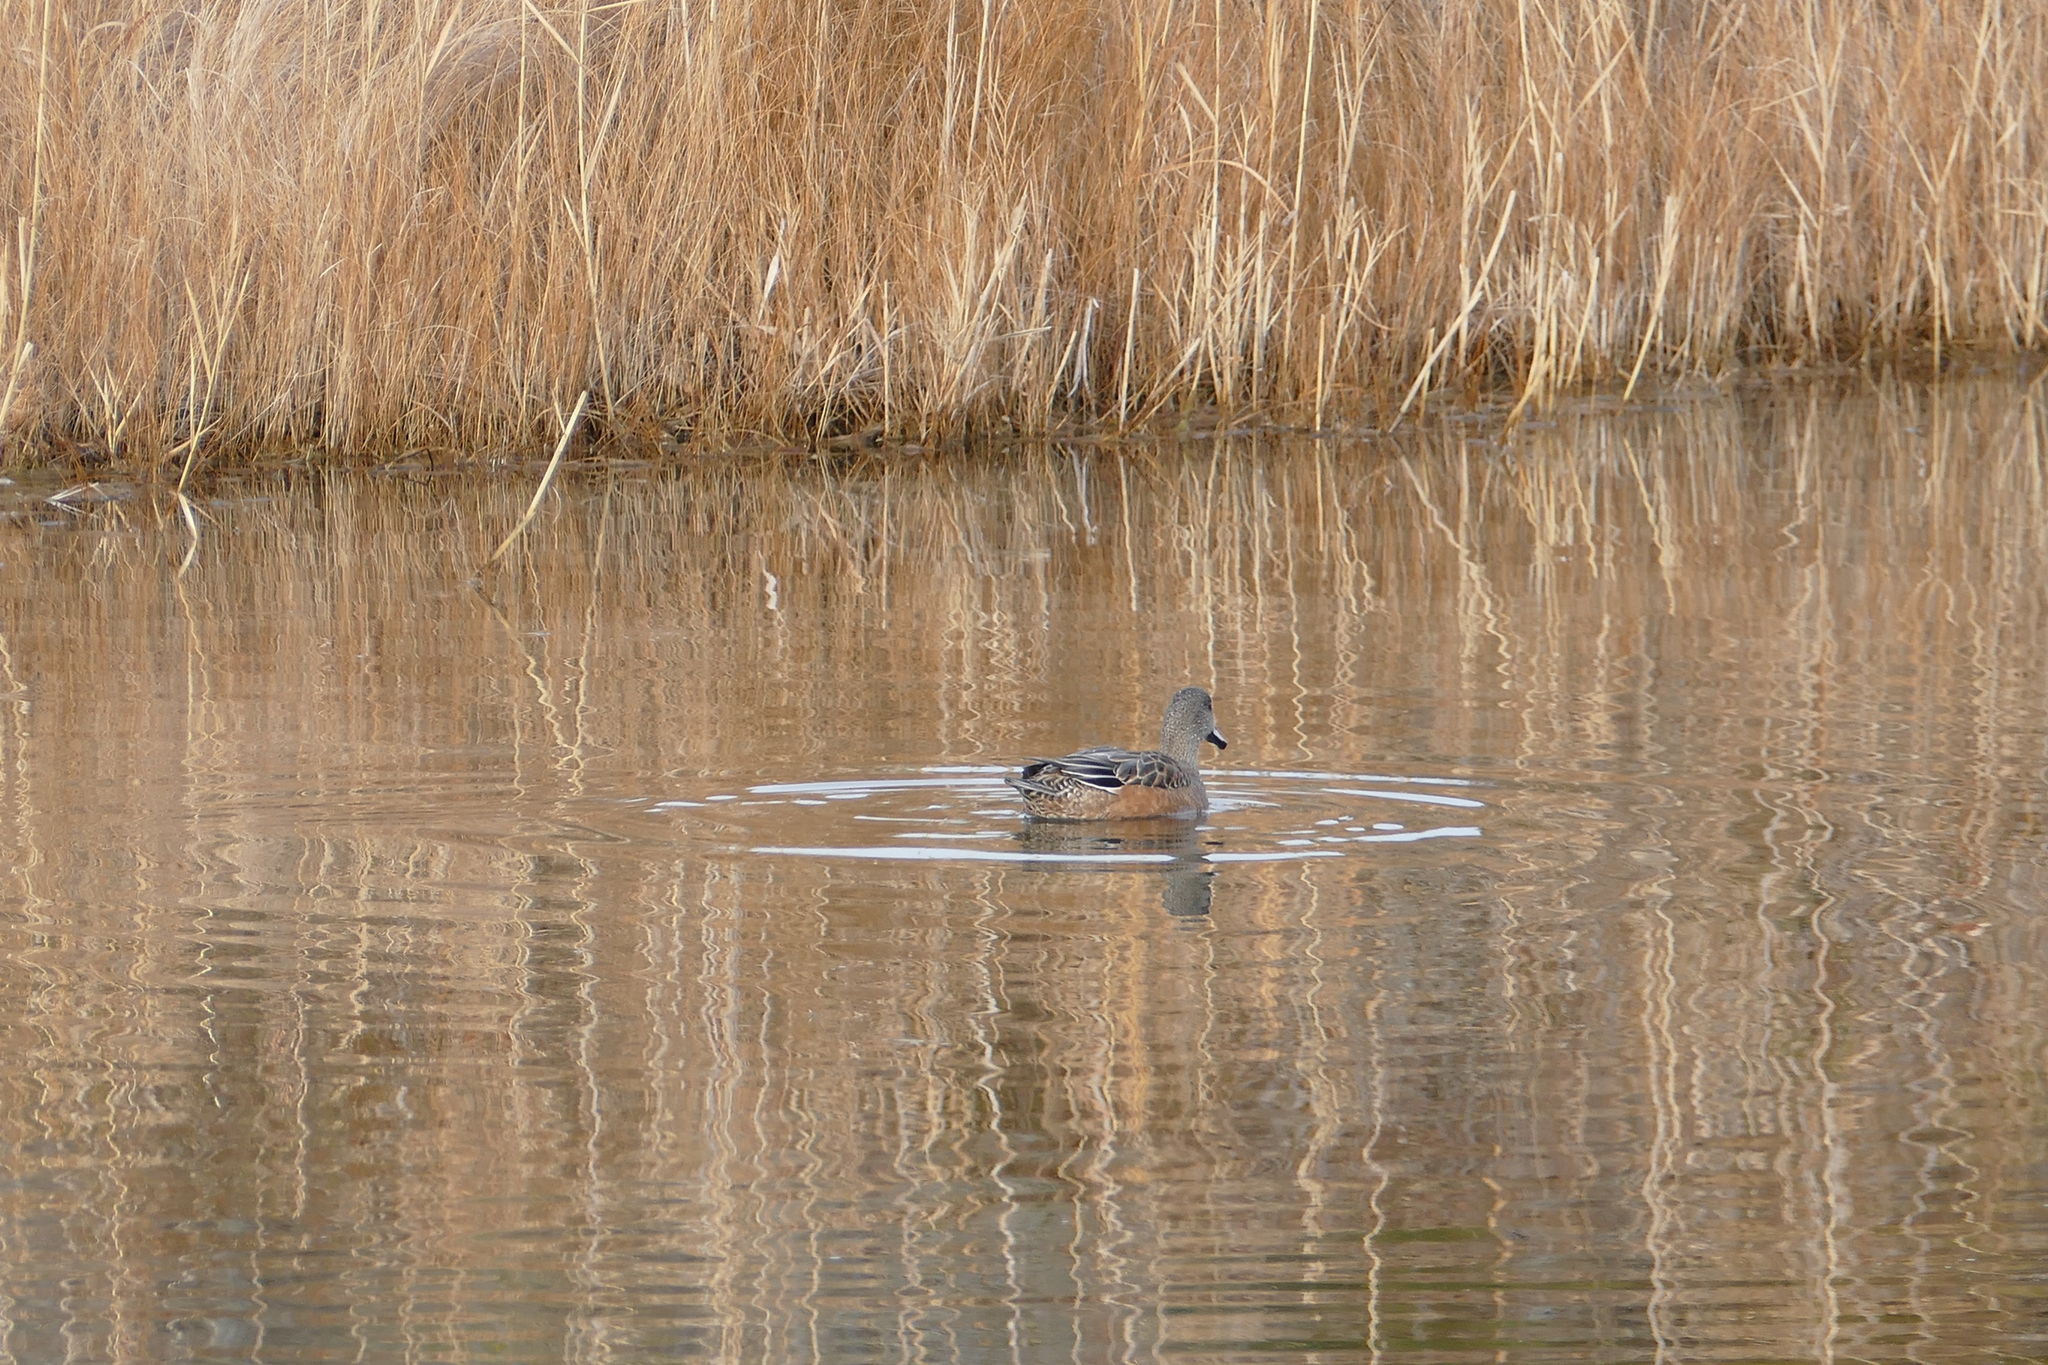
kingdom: Animalia
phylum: Chordata
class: Aves
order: Anseriformes
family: Anatidae
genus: Mareca
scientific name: Mareca americana
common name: American wigeon
